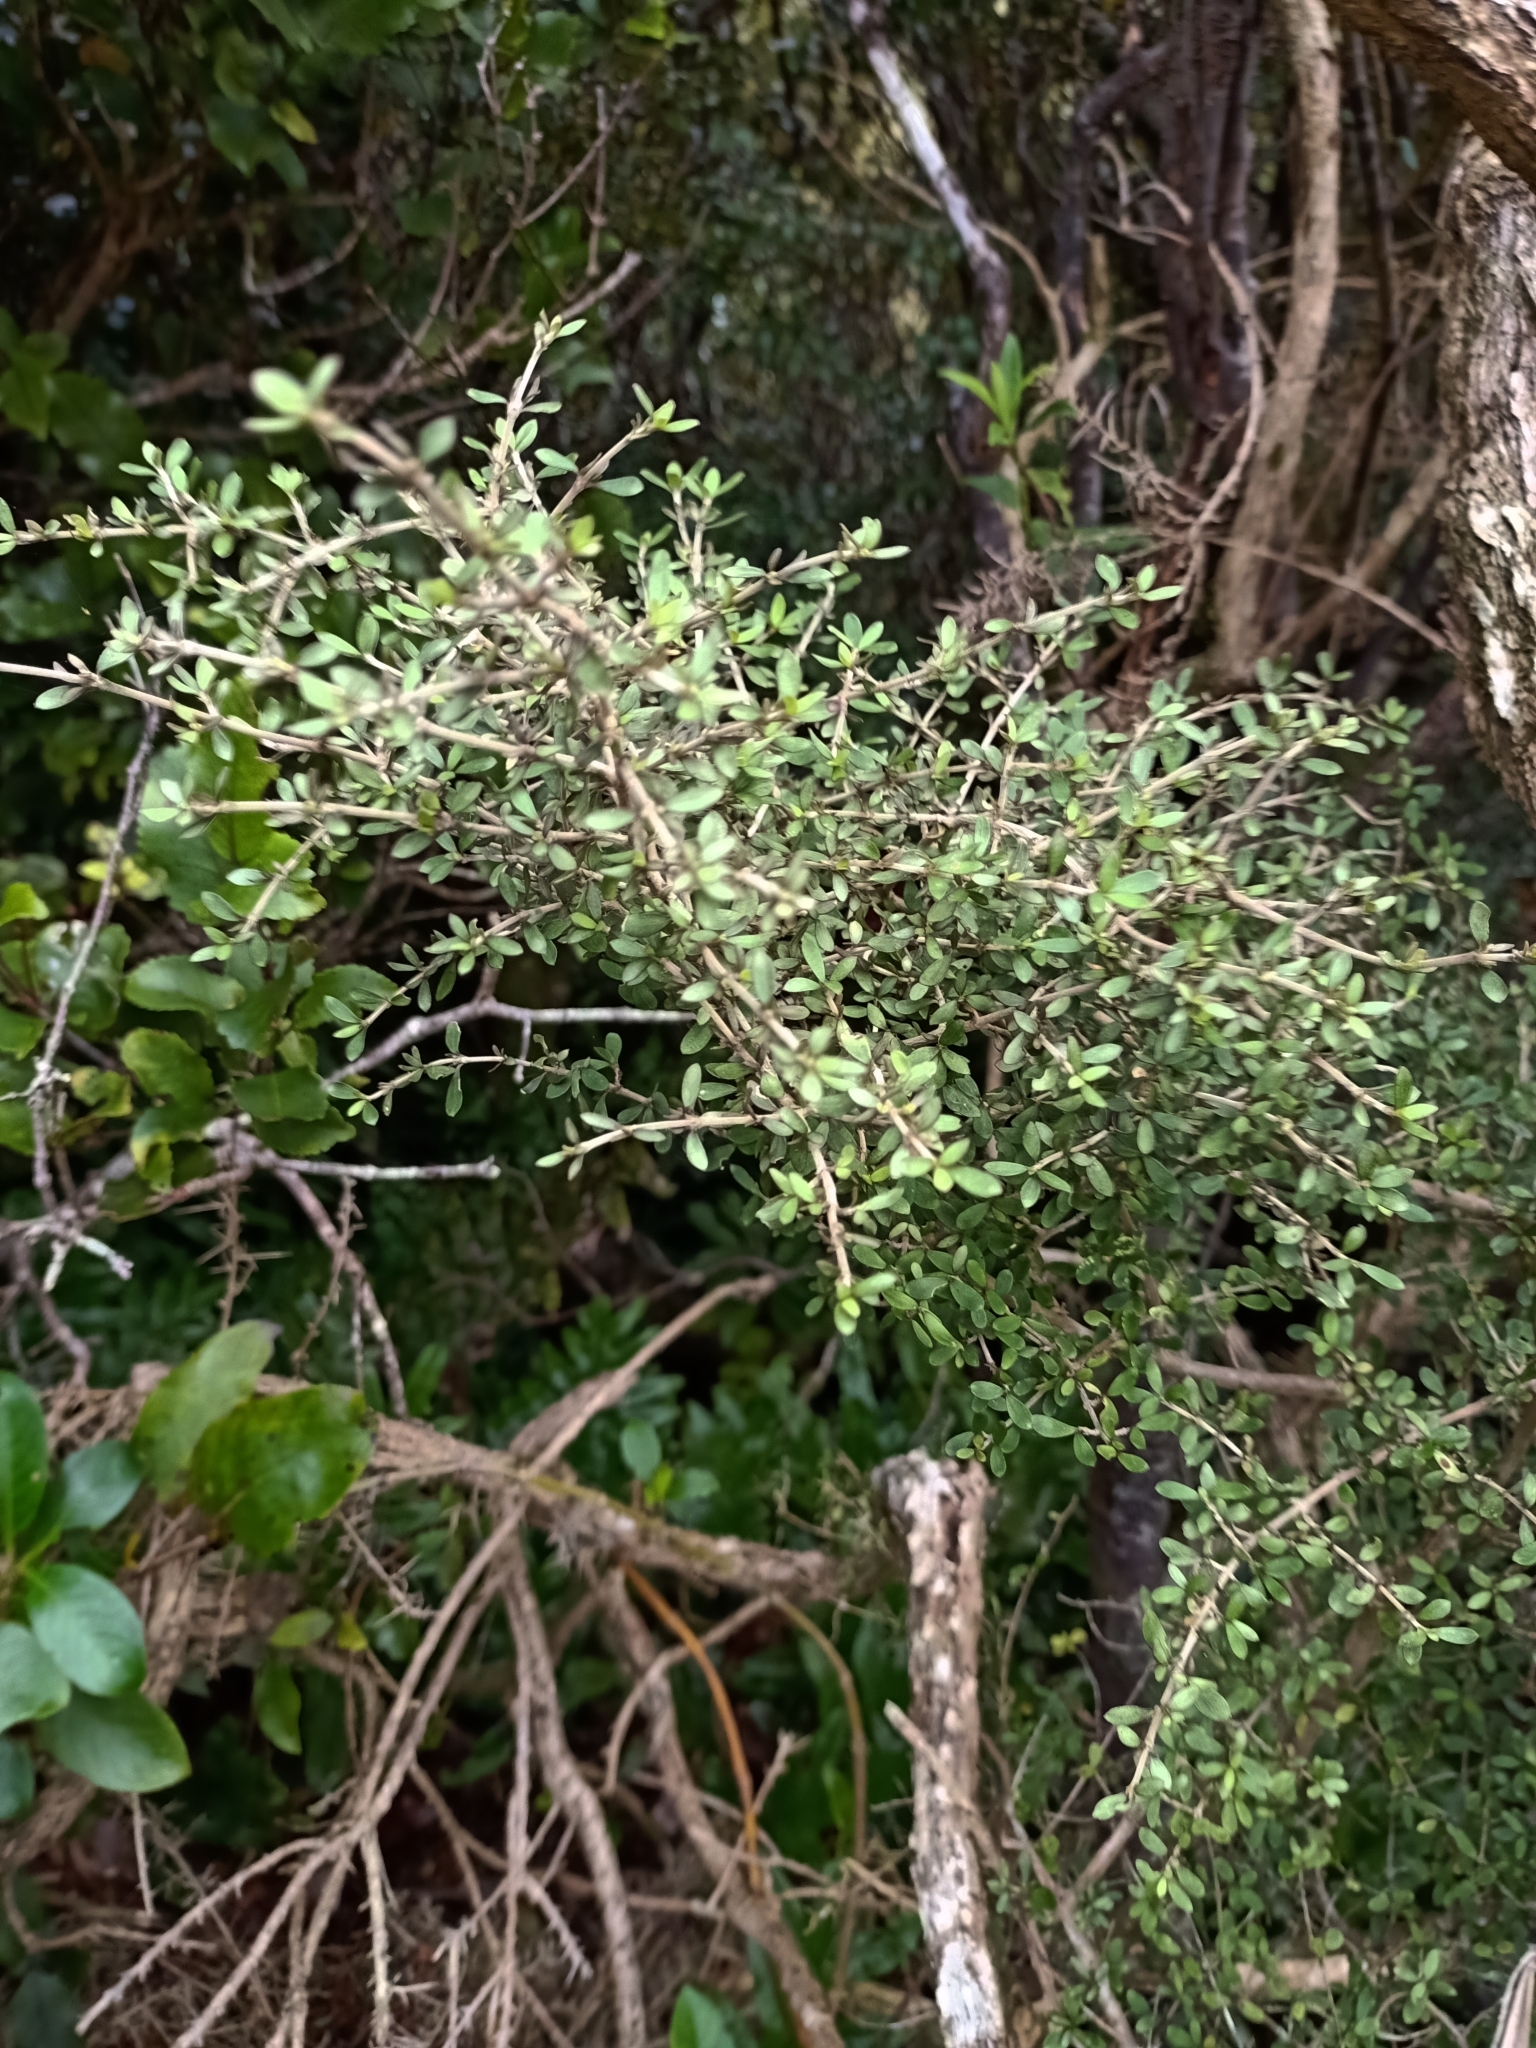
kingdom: Plantae
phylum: Tracheophyta
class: Magnoliopsida
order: Gentianales
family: Rubiaceae
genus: Coprosma
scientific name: Coprosma dumosa
